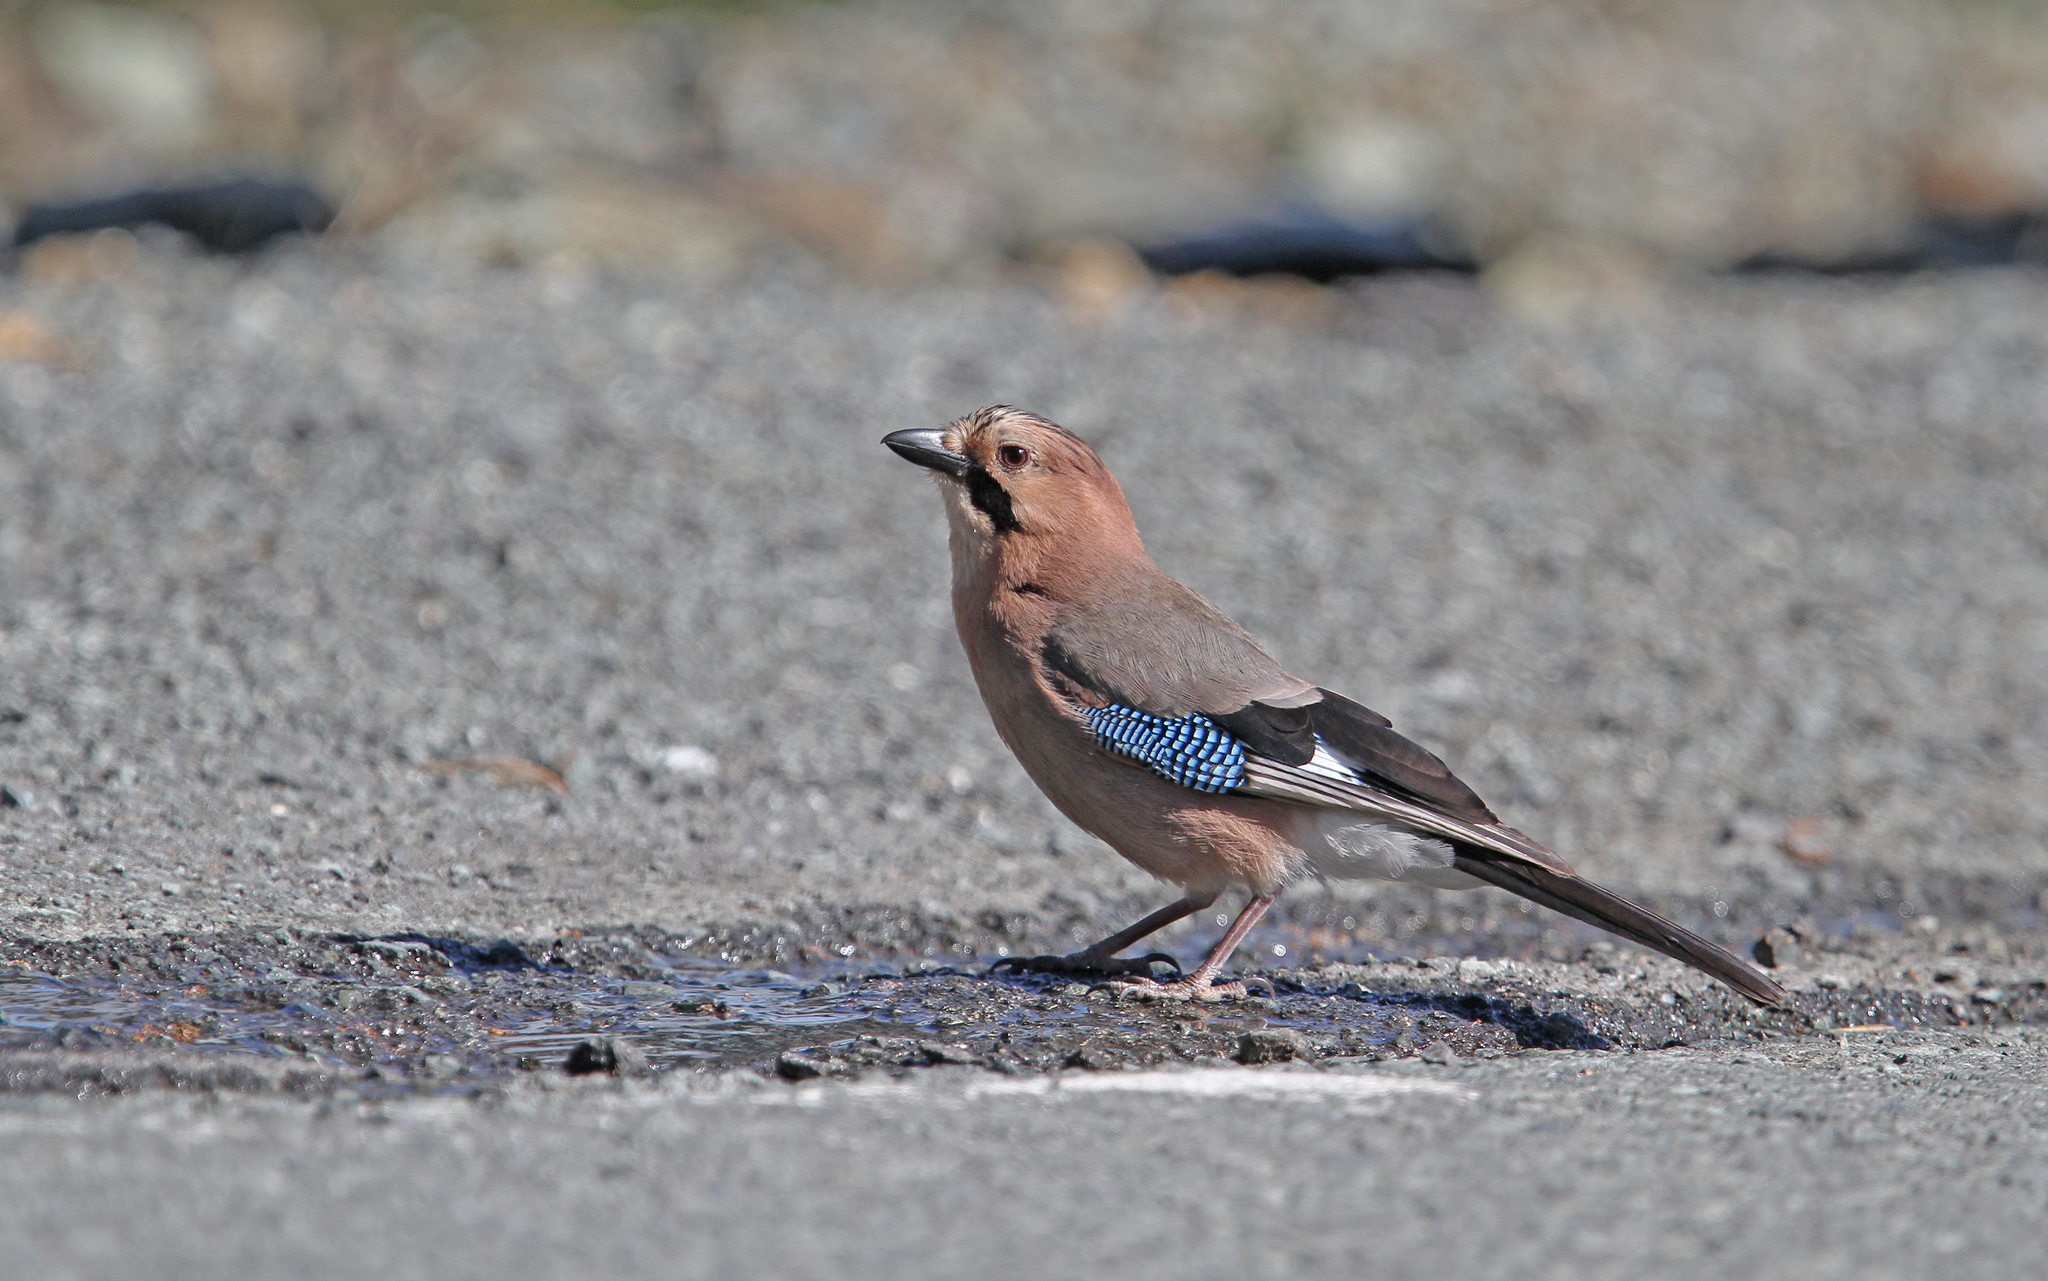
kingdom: Animalia
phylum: Chordata
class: Aves
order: Passeriformes
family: Corvidae
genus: Garrulus
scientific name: Garrulus glandarius
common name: Eurasian jay
